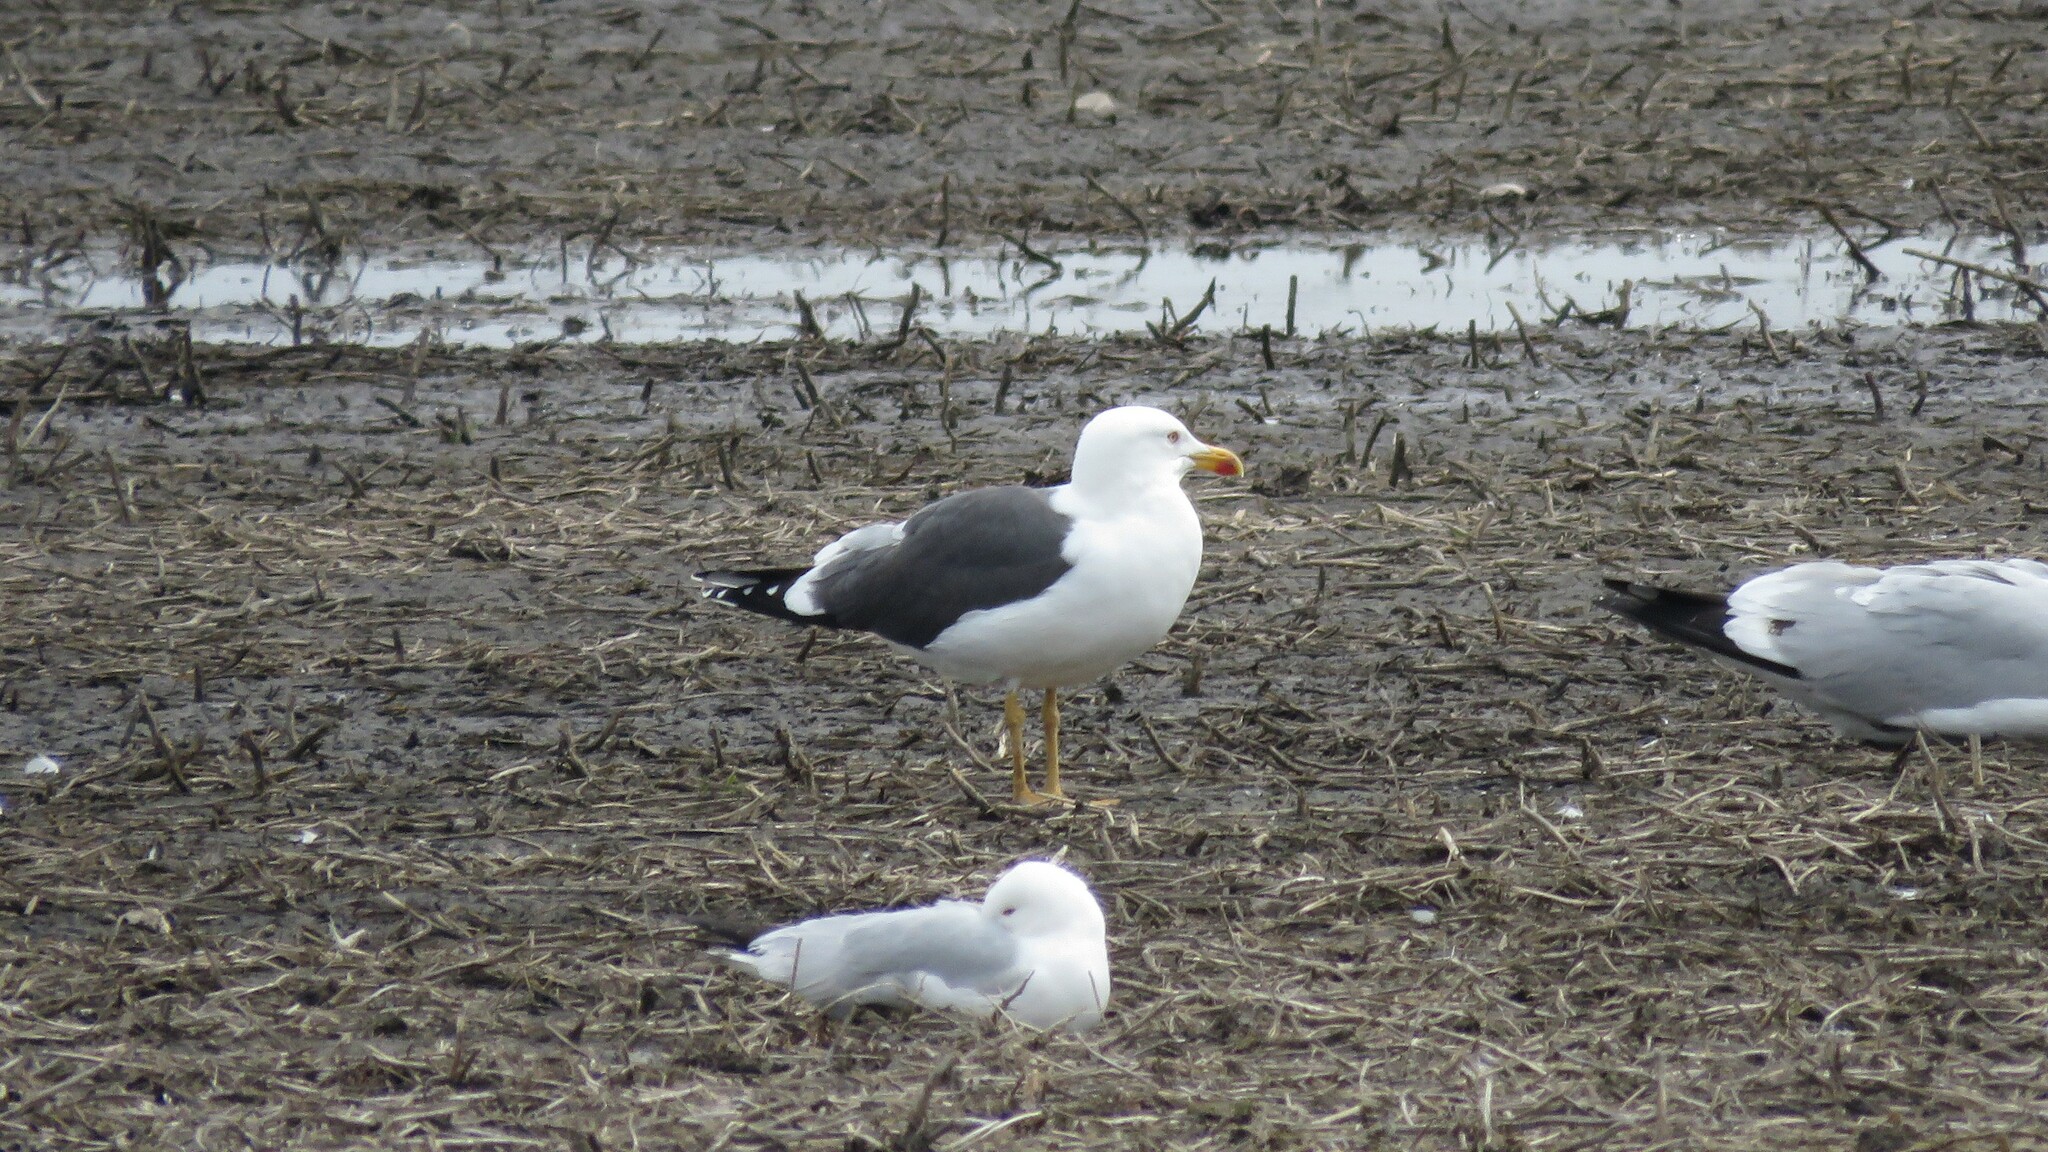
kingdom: Animalia
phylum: Chordata
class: Aves
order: Charadriiformes
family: Laridae
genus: Larus
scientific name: Larus fuscus
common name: Lesser black-backed gull
